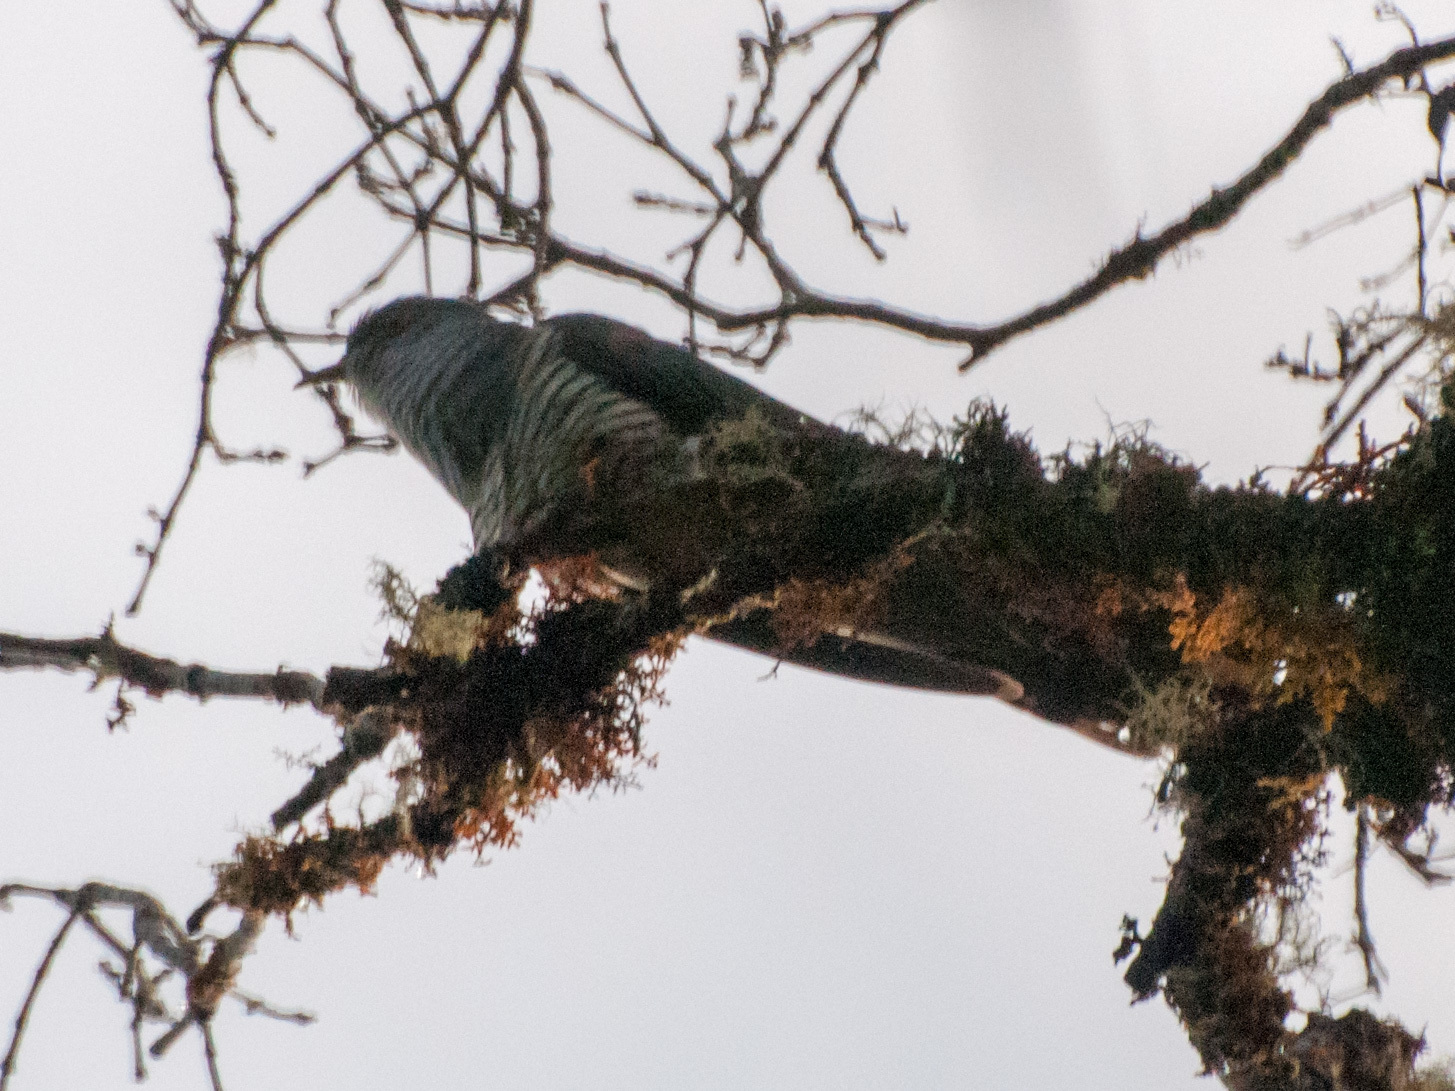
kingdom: Animalia
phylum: Chordata
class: Aves
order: Cuculiformes
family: Cuculidae
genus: Cuculus
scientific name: Cuculus rochii
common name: Madagascar cuckoo
